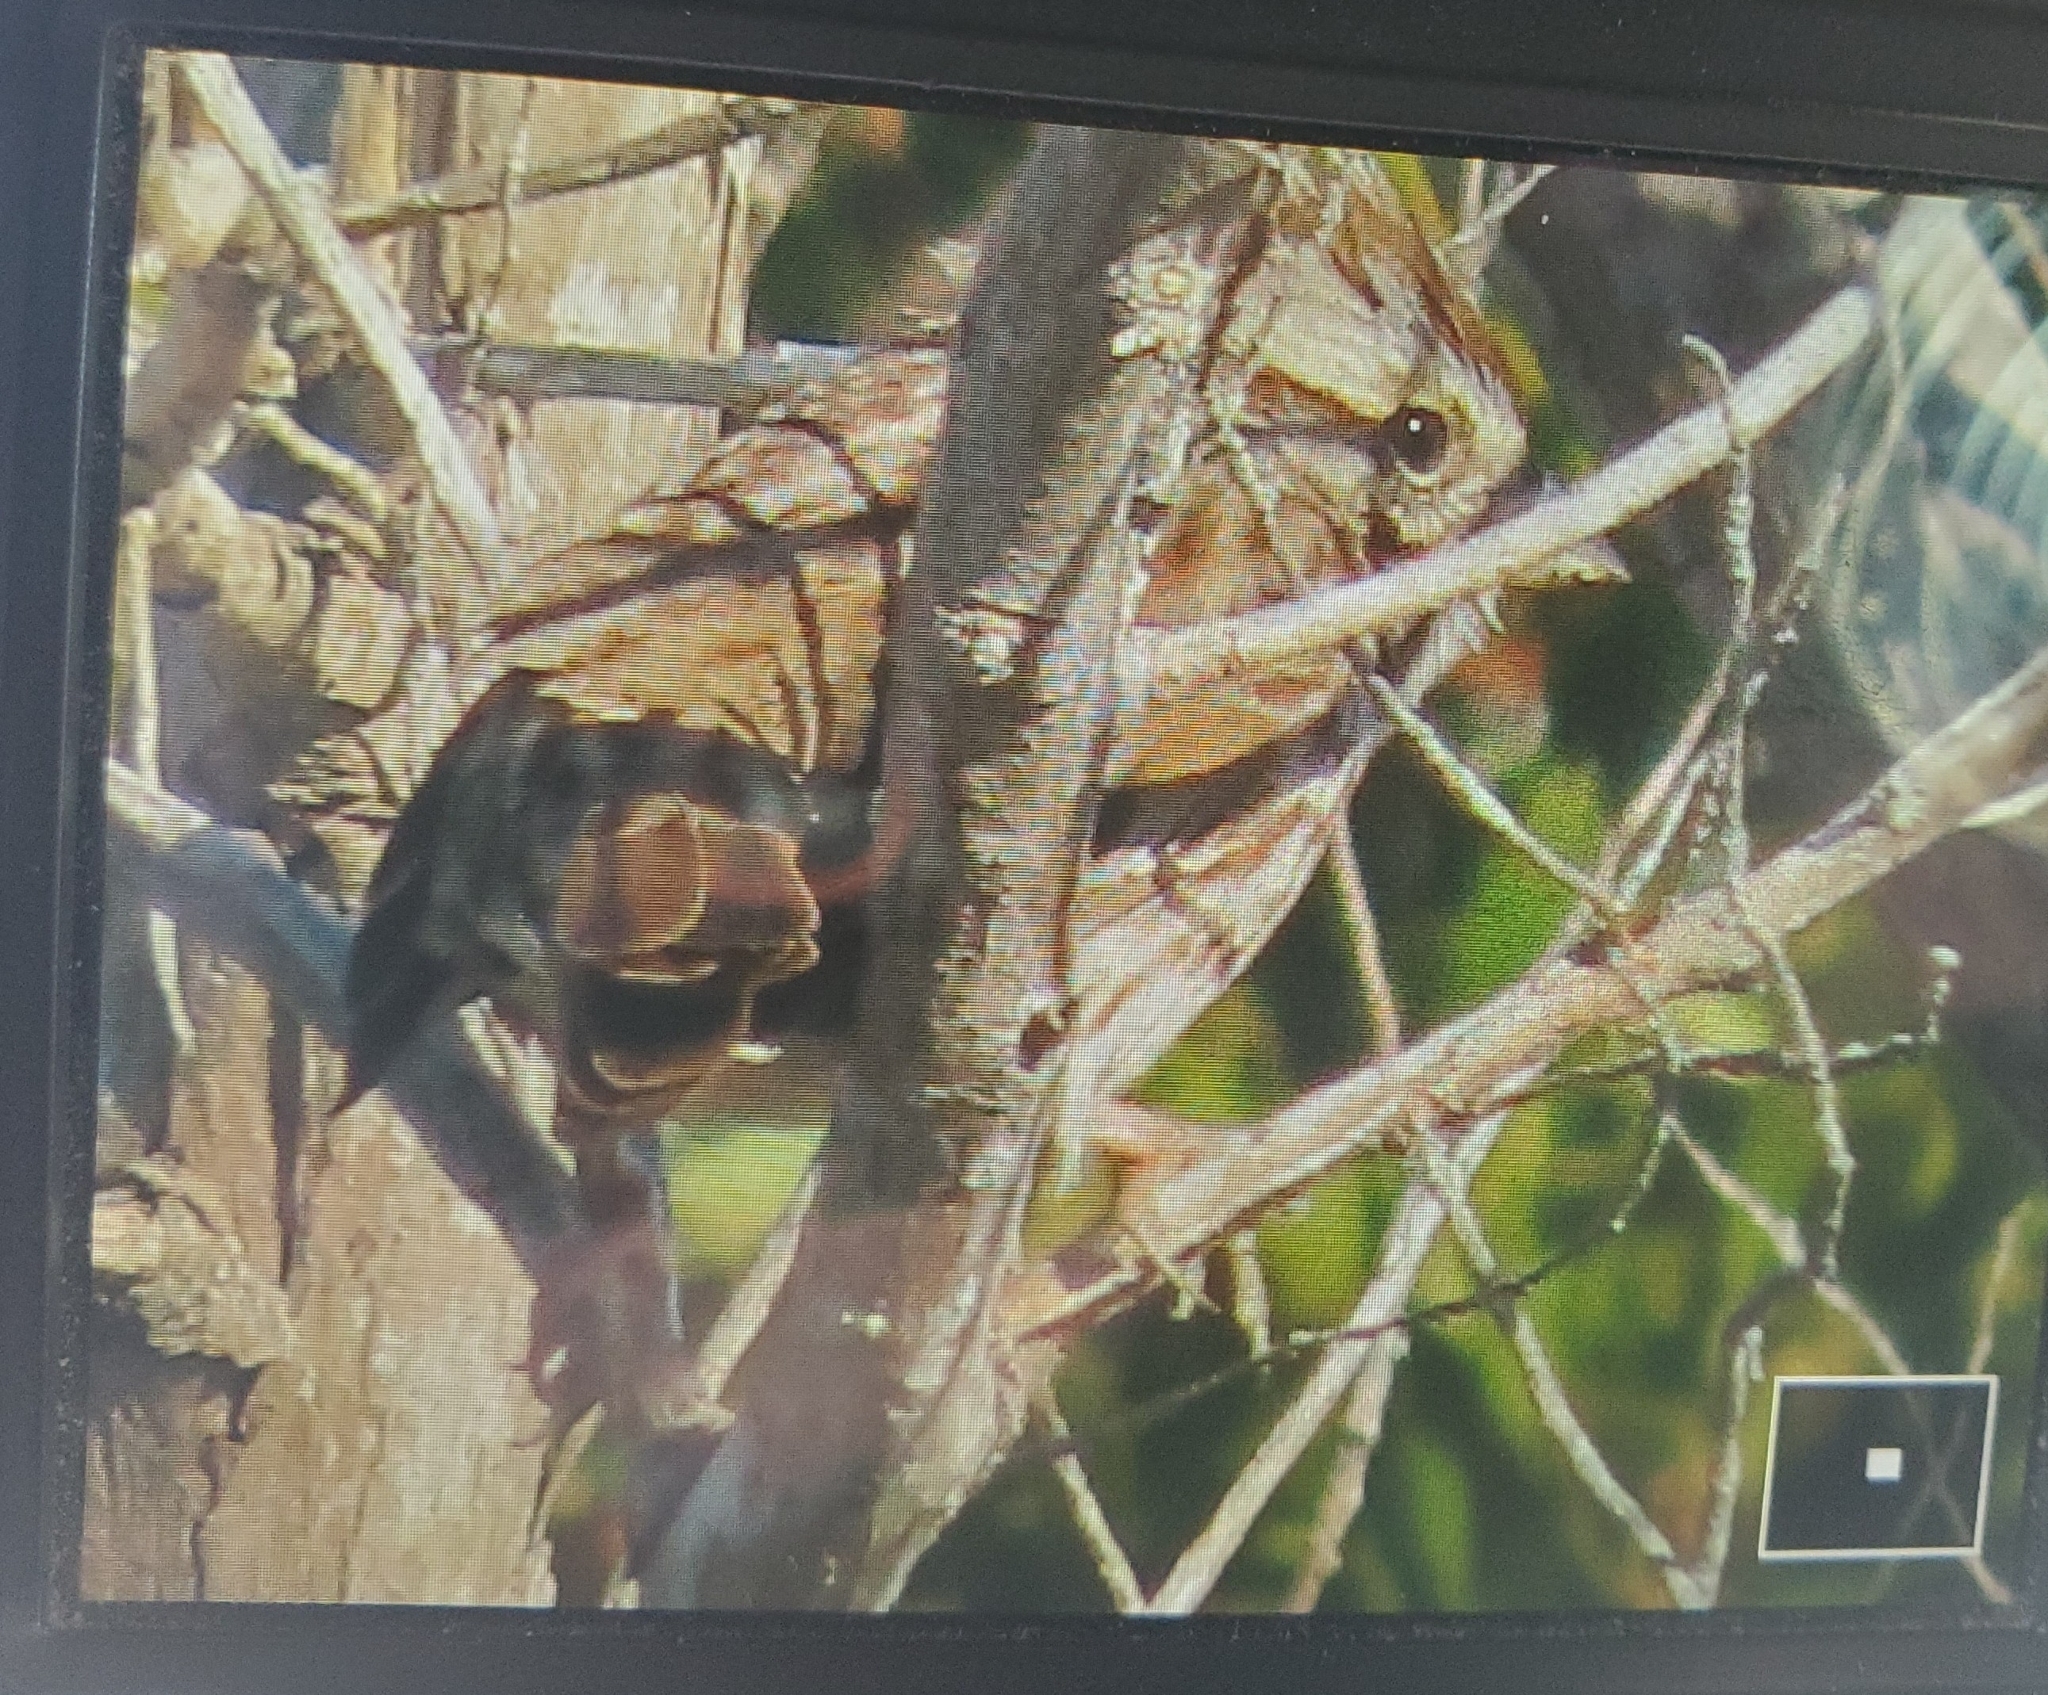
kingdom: Animalia
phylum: Chordata
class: Aves
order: Passeriformes
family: Passerellidae
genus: Melospiza
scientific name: Melospiza melodia
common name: Song sparrow
